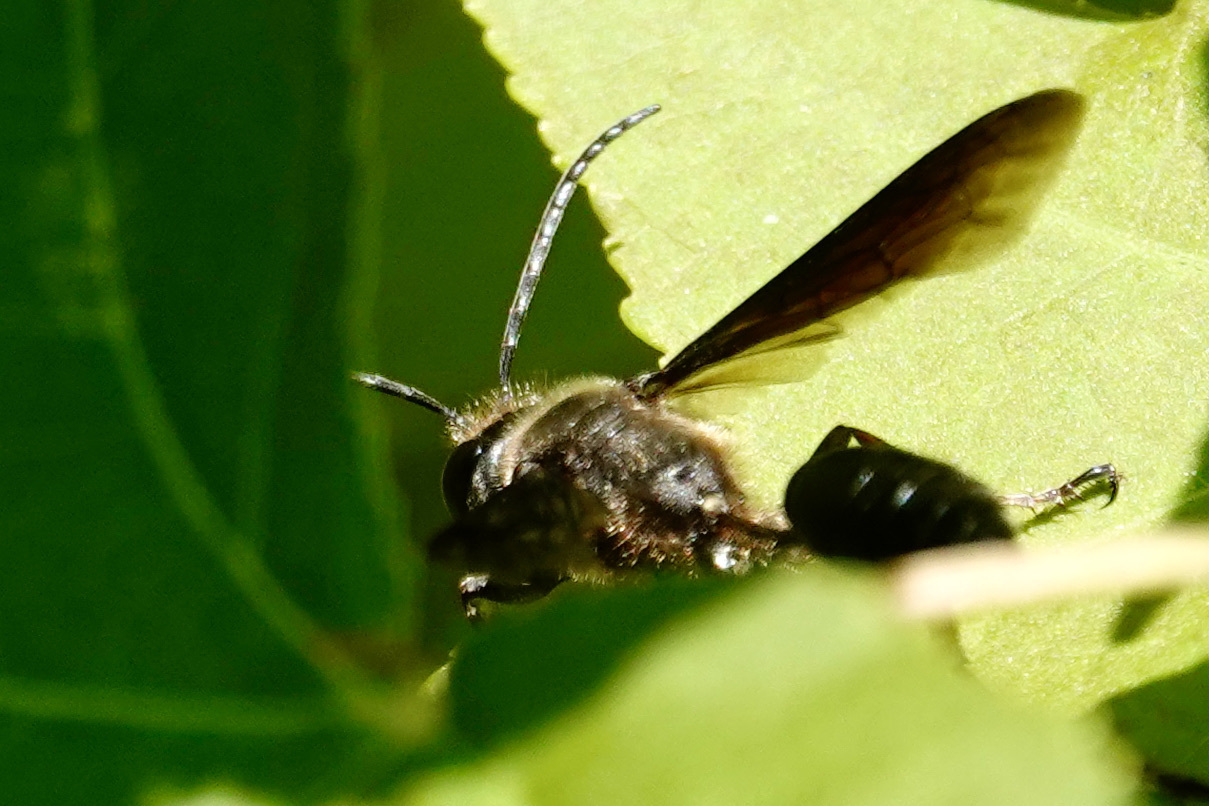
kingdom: Animalia
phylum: Arthropoda
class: Insecta
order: Hymenoptera
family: Sphecidae
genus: Isodontia
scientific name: Isodontia auripes
